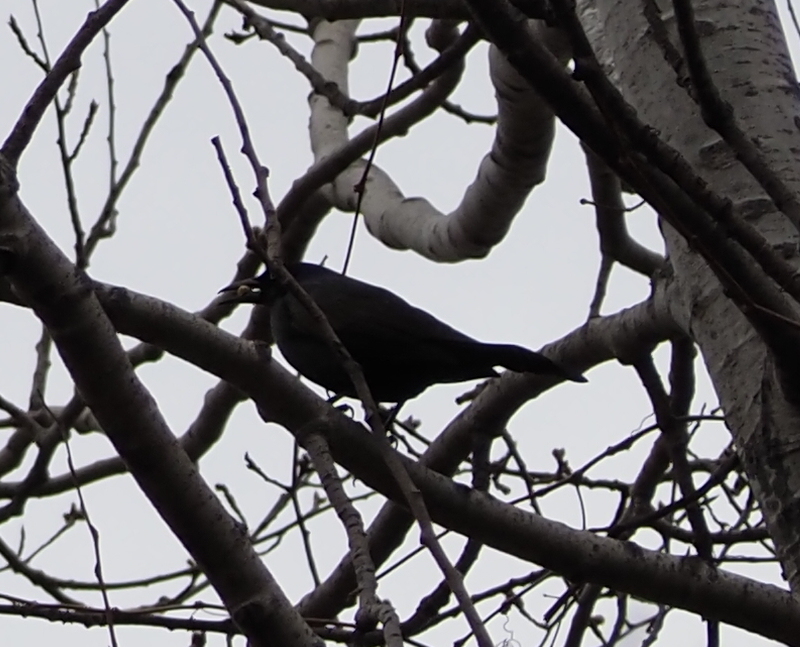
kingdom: Animalia
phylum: Chordata
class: Aves
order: Passeriformes
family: Icteridae
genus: Quiscalus
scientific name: Quiscalus quiscula
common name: Common grackle
